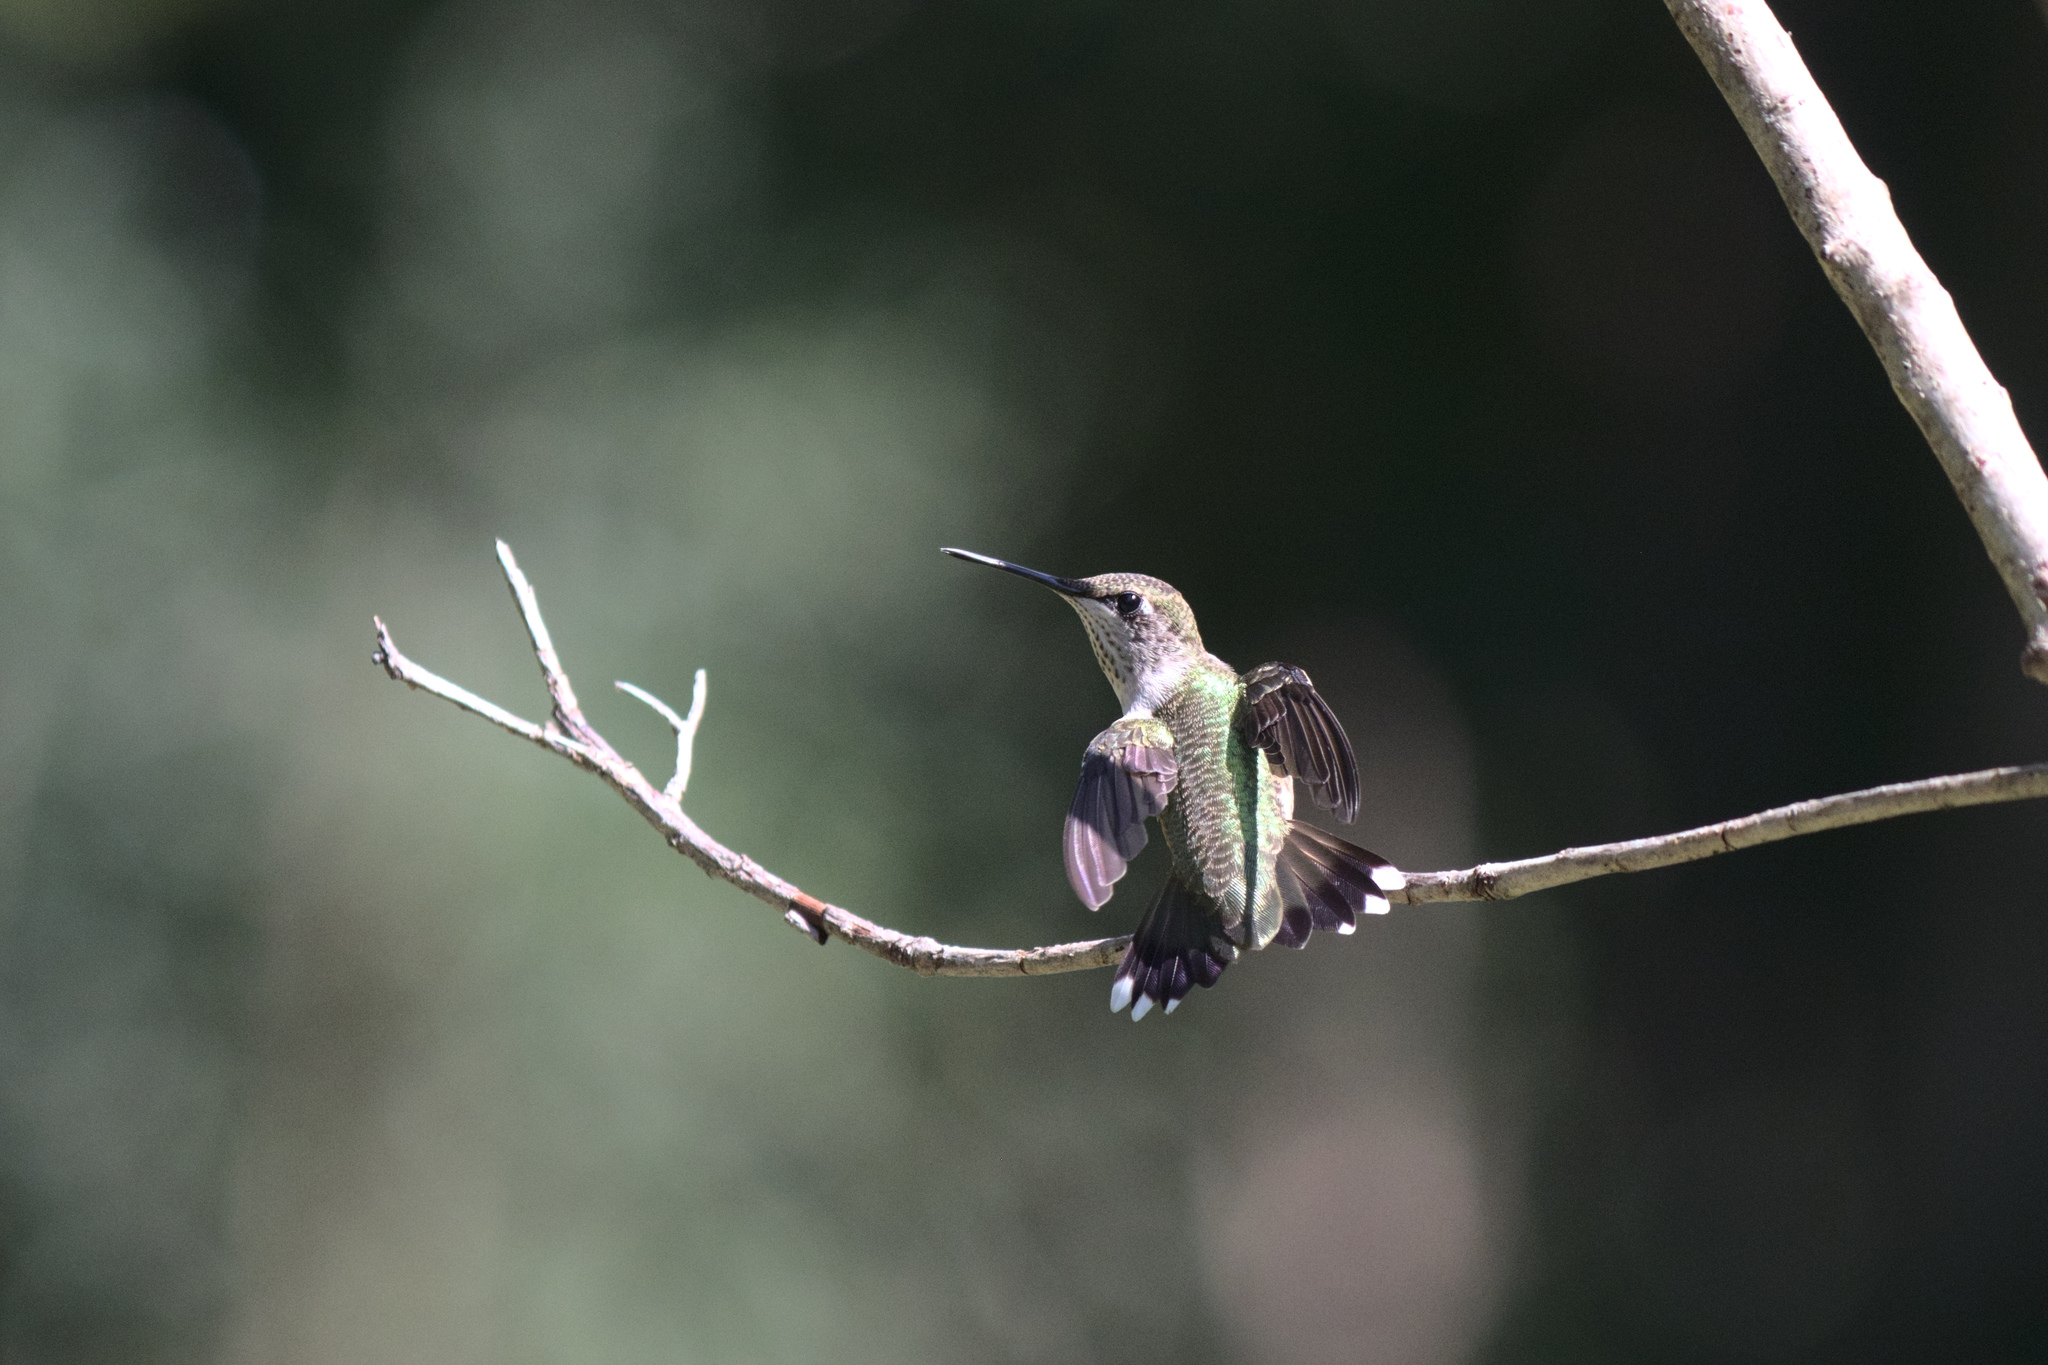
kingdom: Animalia
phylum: Chordata
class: Aves
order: Apodiformes
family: Trochilidae
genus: Archilochus
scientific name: Archilochus colubris
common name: Ruby-throated hummingbird
